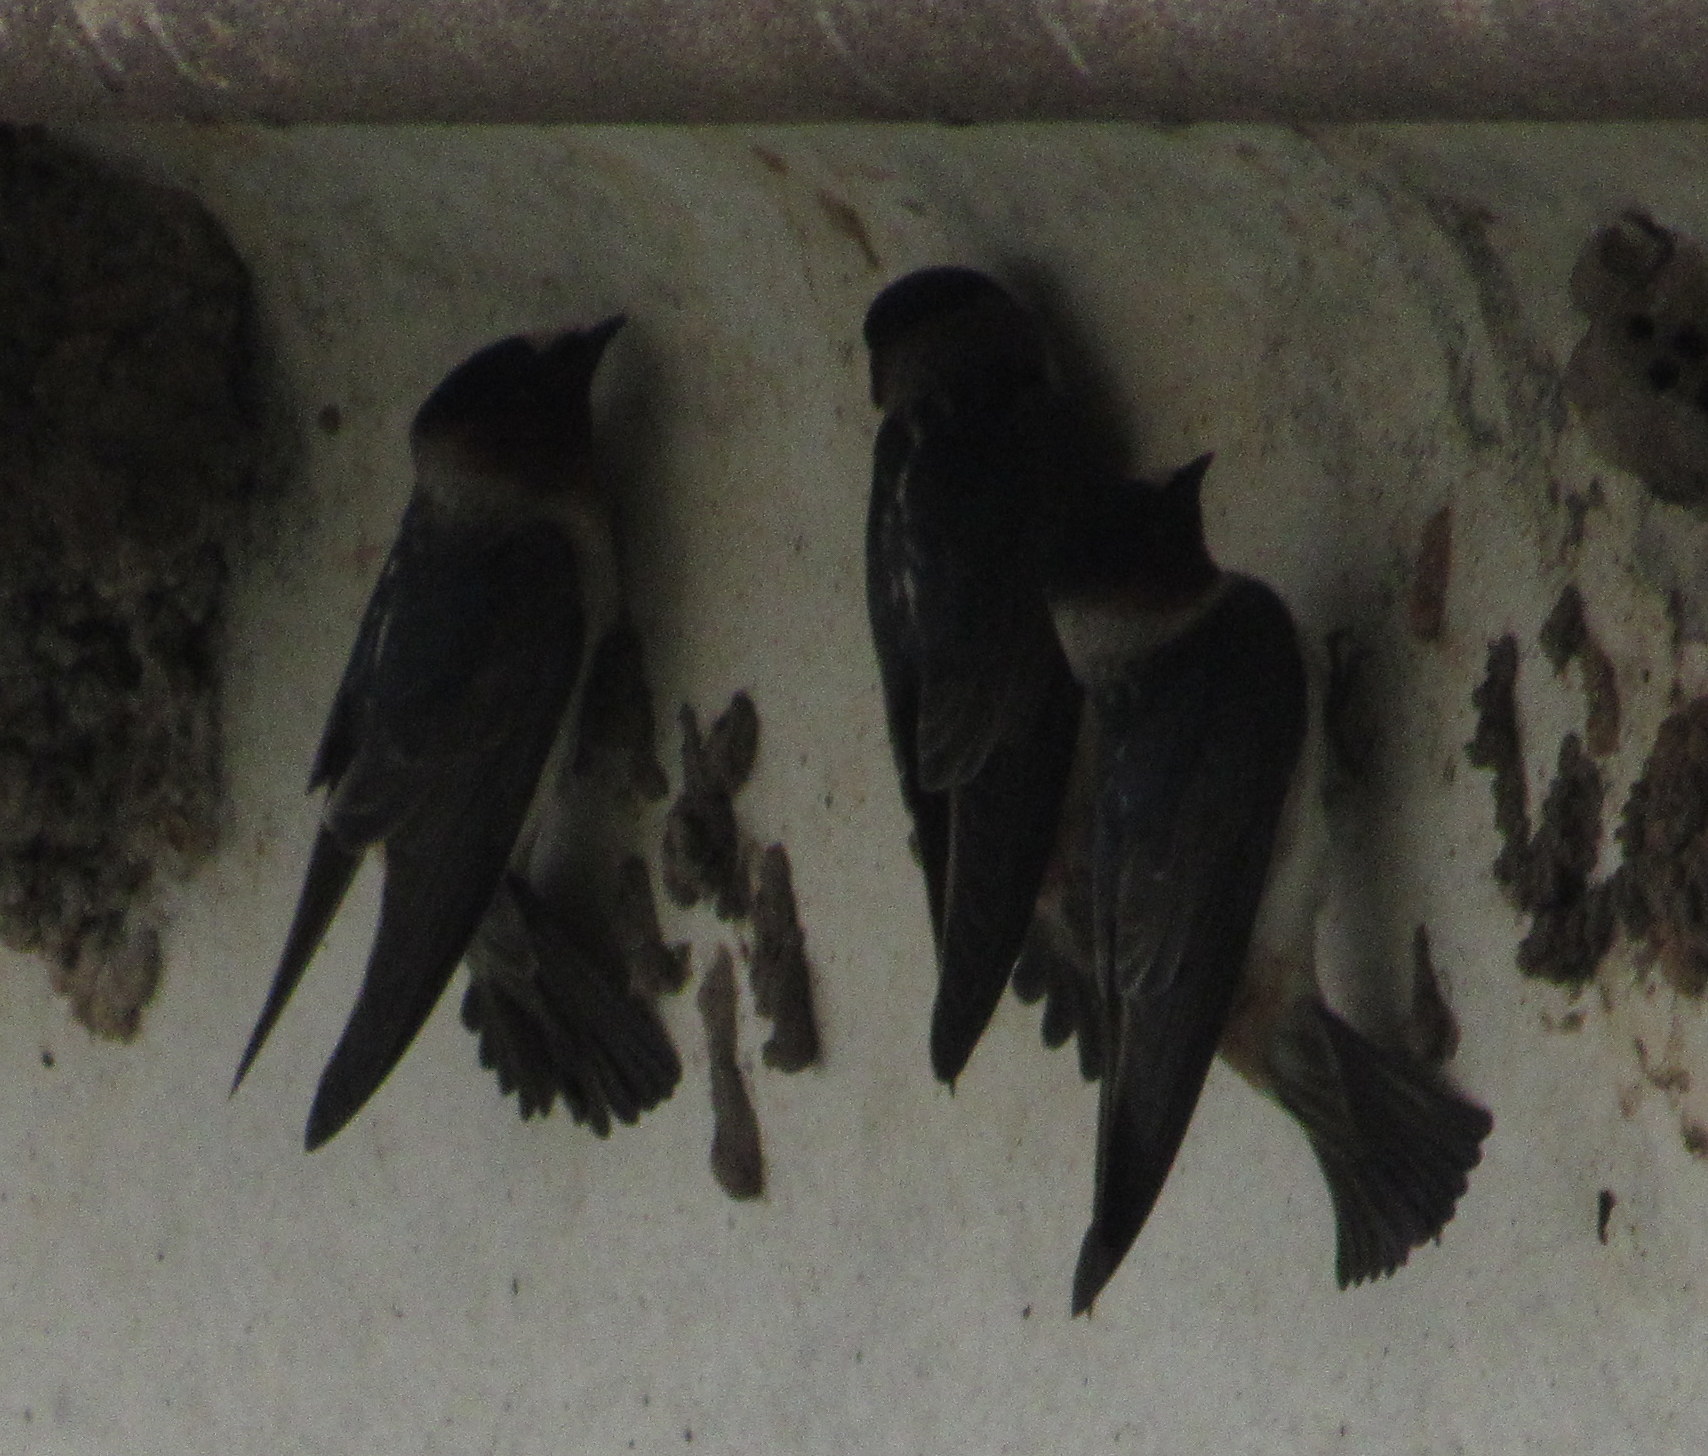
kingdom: Animalia
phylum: Chordata
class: Aves
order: Passeriformes
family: Hirundinidae
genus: Petrochelidon
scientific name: Petrochelidon pyrrhonota
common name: American cliff swallow
